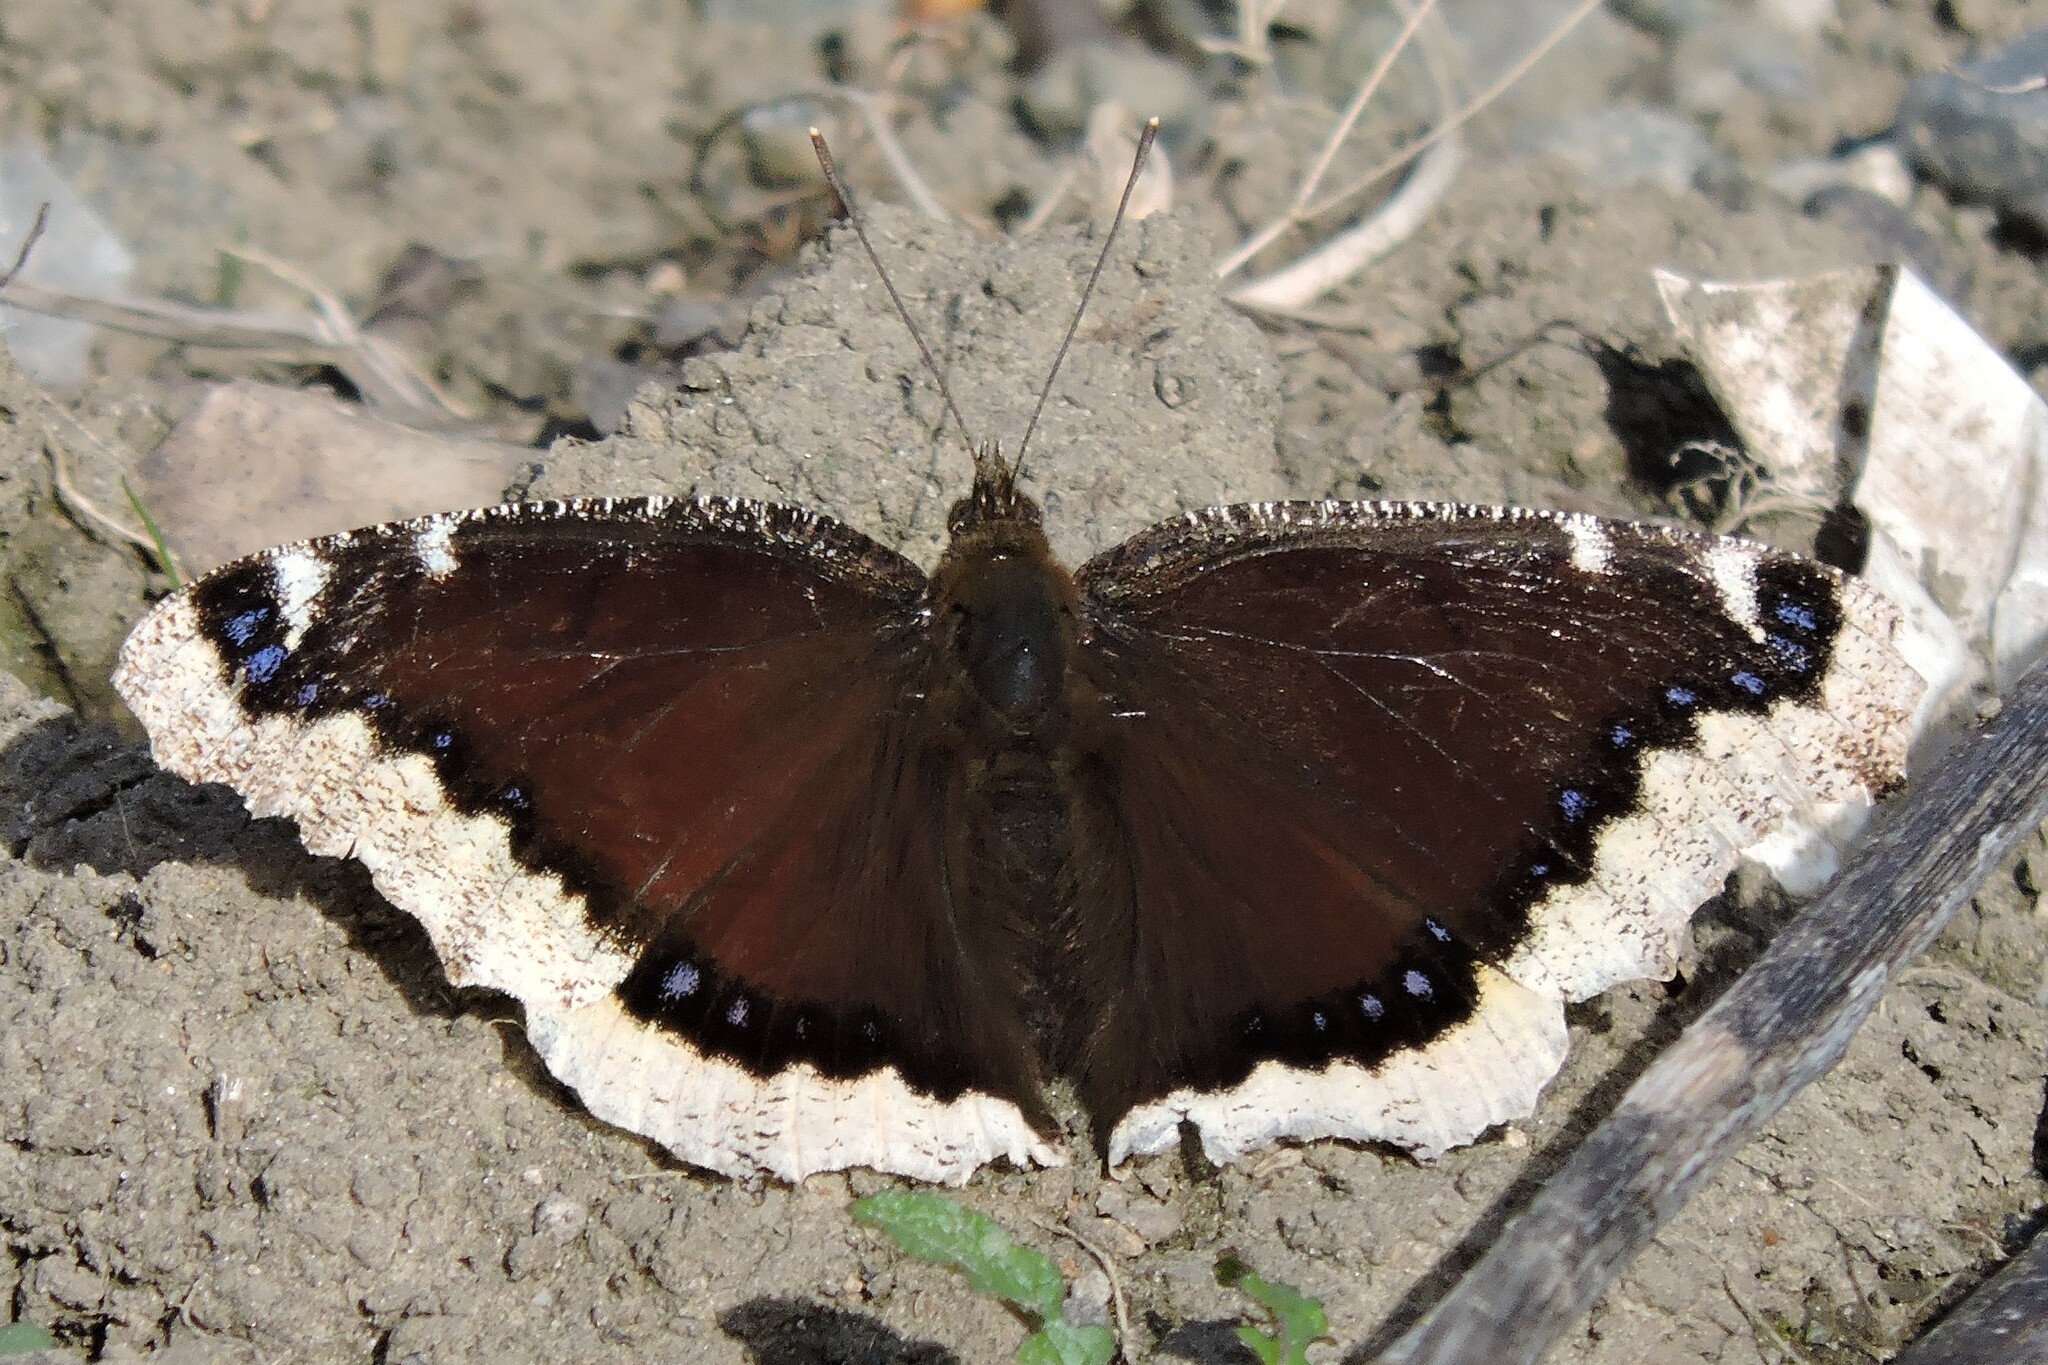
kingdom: Animalia
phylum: Arthropoda
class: Insecta
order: Lepidoptera
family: Nymphalidae
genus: Nymphalis
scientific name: Nymphalis antiopa
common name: Camberwell beauty
